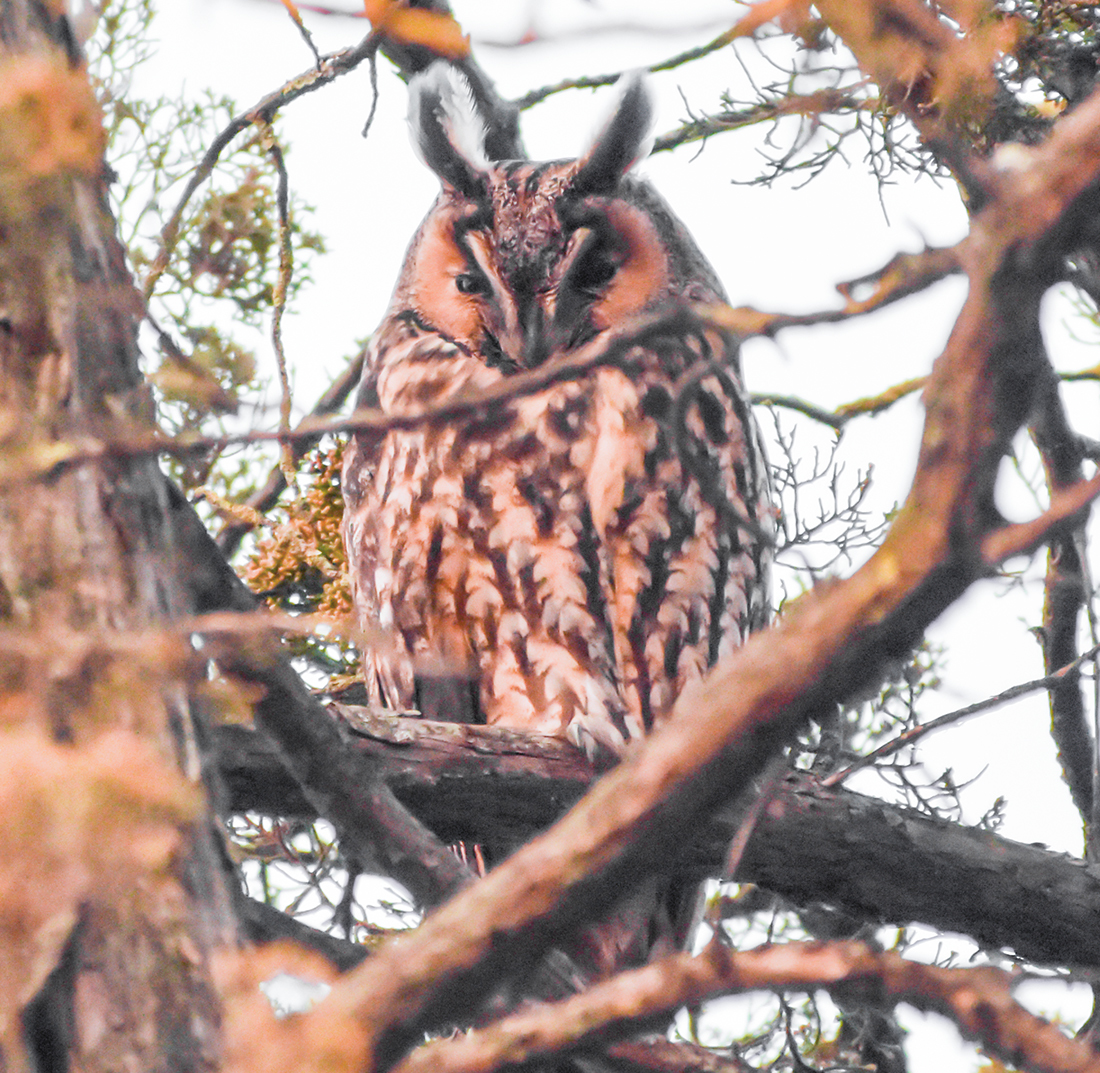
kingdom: Animalia
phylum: Chordata
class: Aves
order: Strigiformes
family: Strigidae
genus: Asio
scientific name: Asio otus
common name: Long-eared owl
